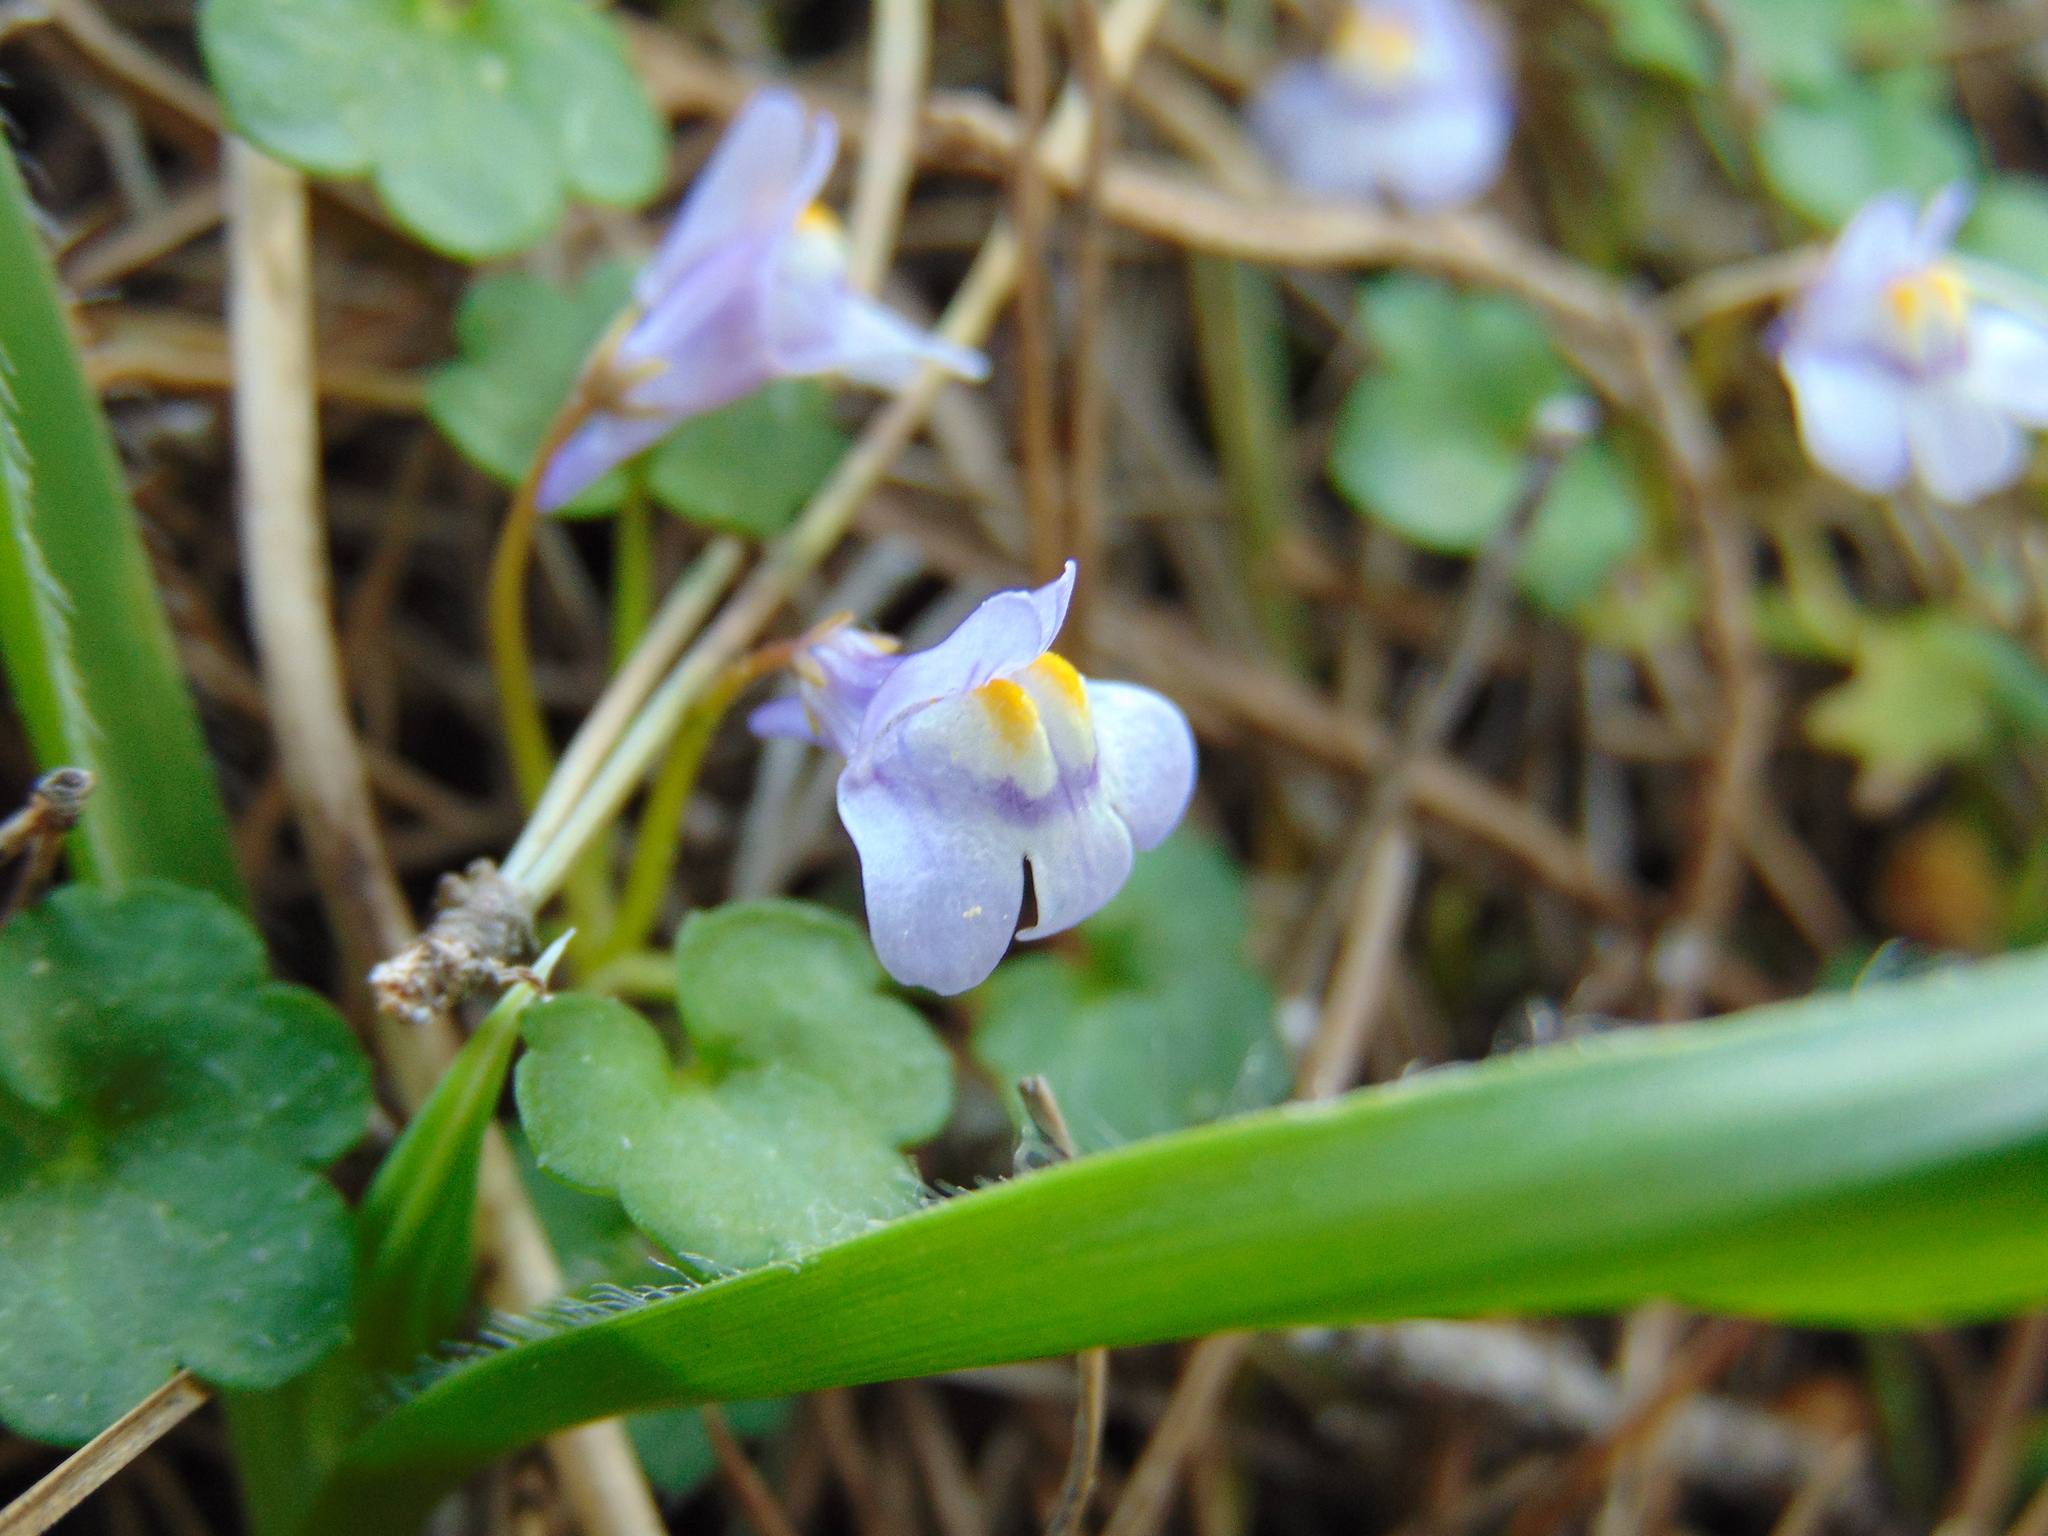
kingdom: Plantae
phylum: Tracheophyta
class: Magnoliopsida
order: Lamiales
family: Plantaginaceae
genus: Cymbalaria
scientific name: Cymbalaria muralis
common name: Ivy-leaved toadflax
